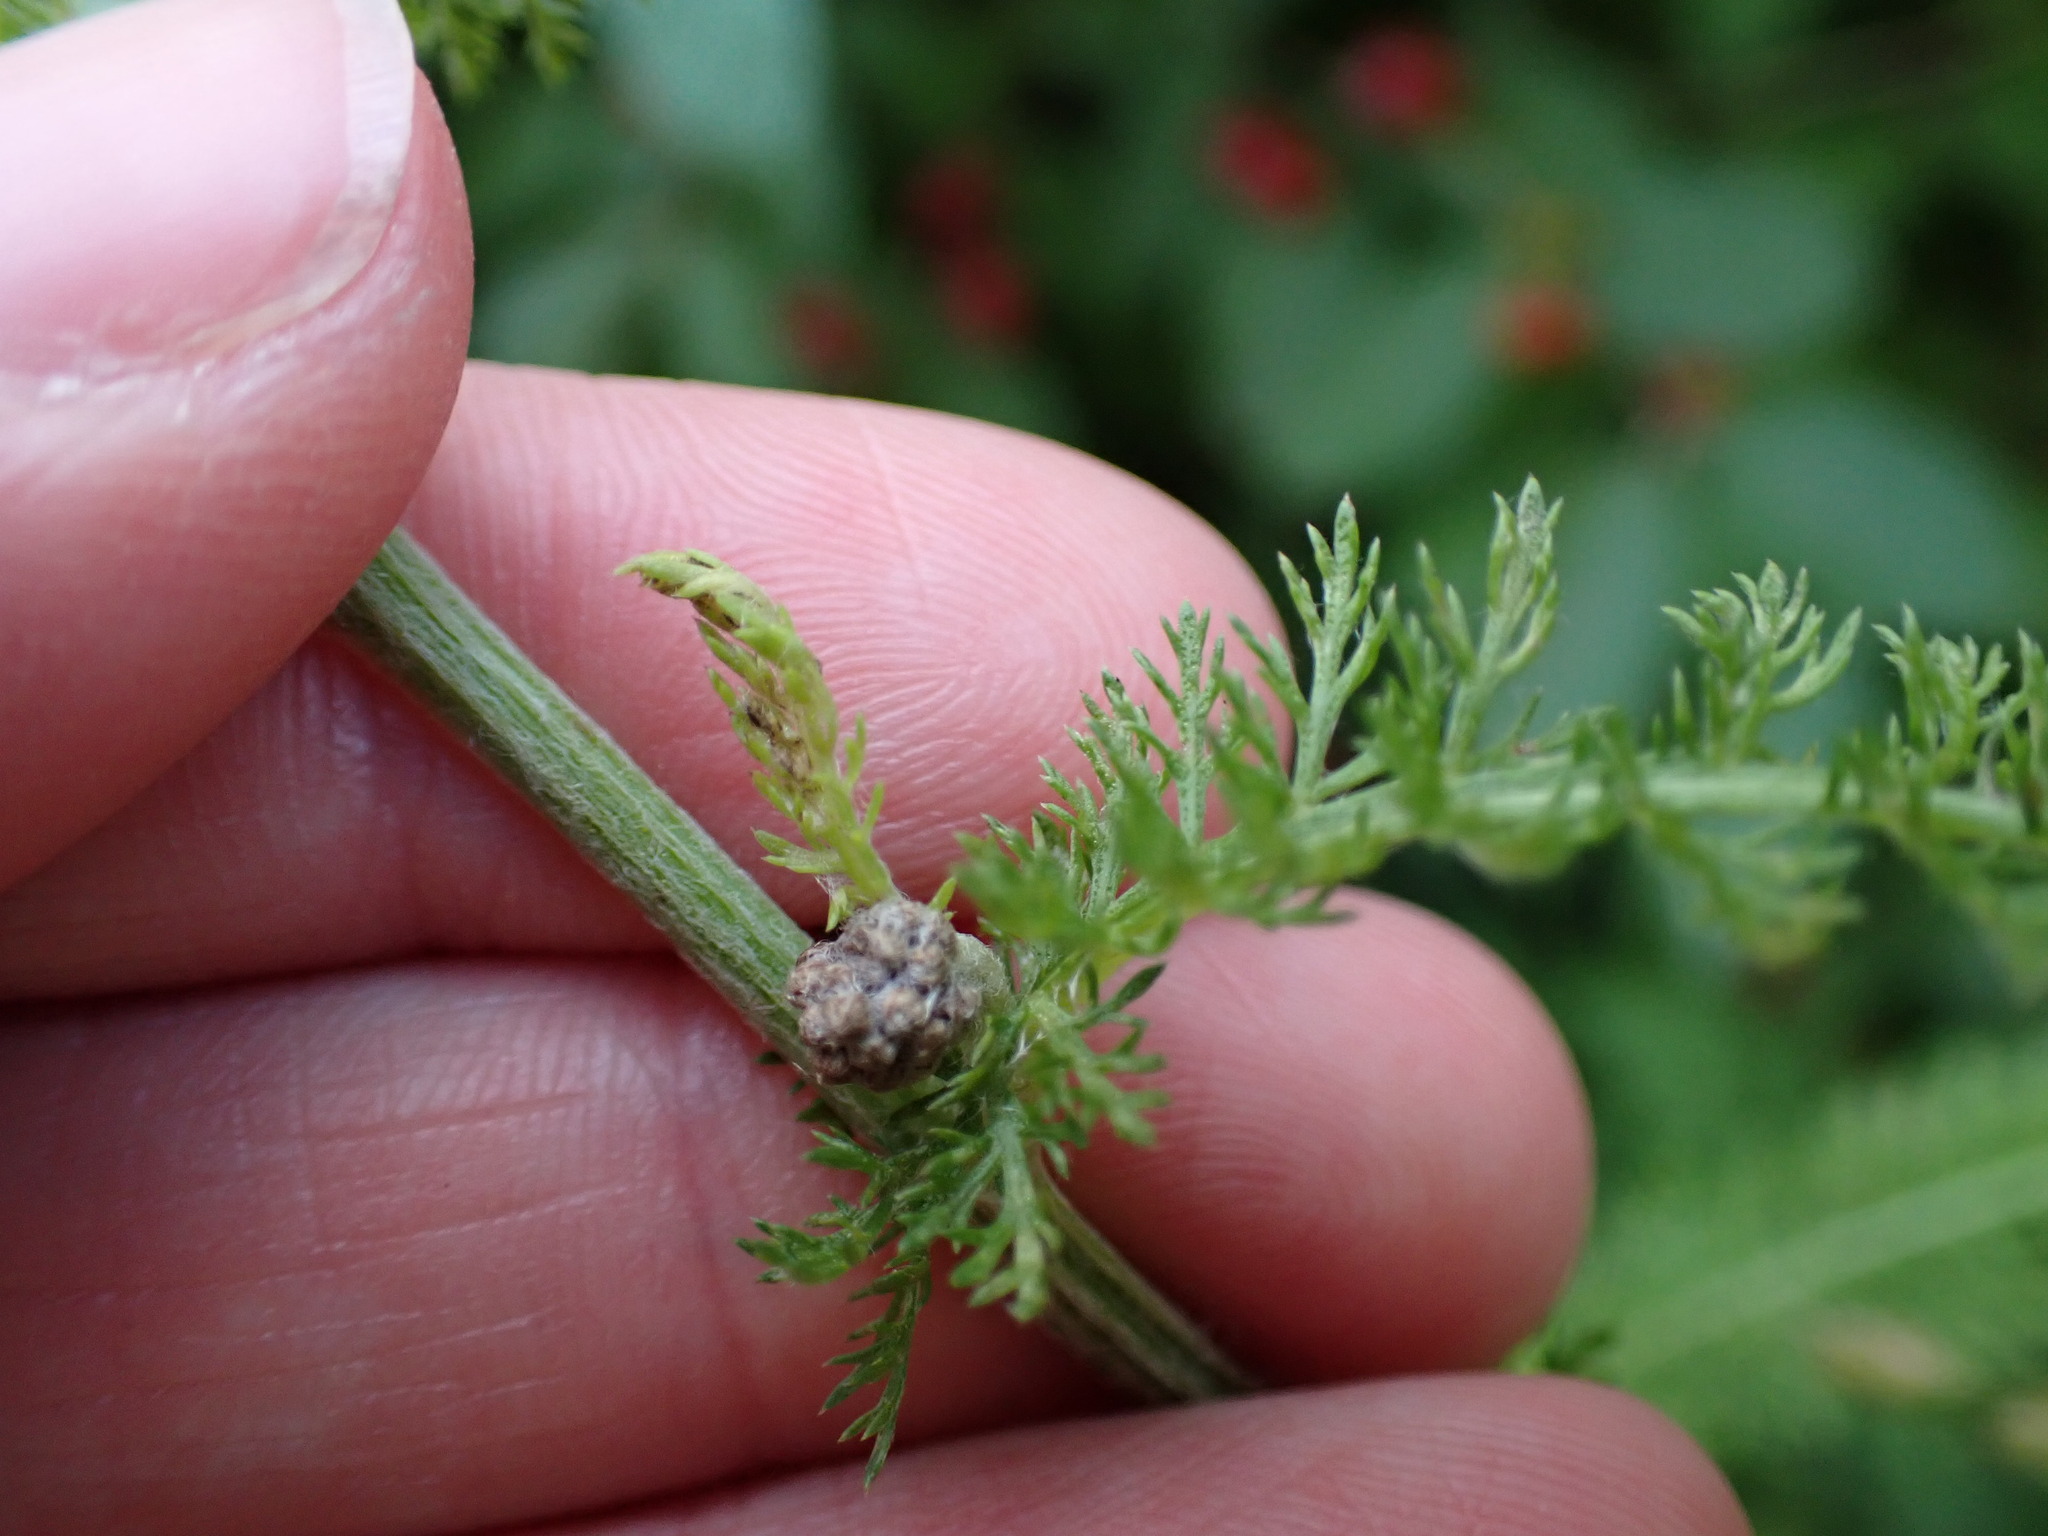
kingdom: Plantae
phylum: Tracheophyta
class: Magnoliopsida
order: Asterales
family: Asteraceae
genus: Achillea
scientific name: Achillea millefolium
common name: Yarrow
